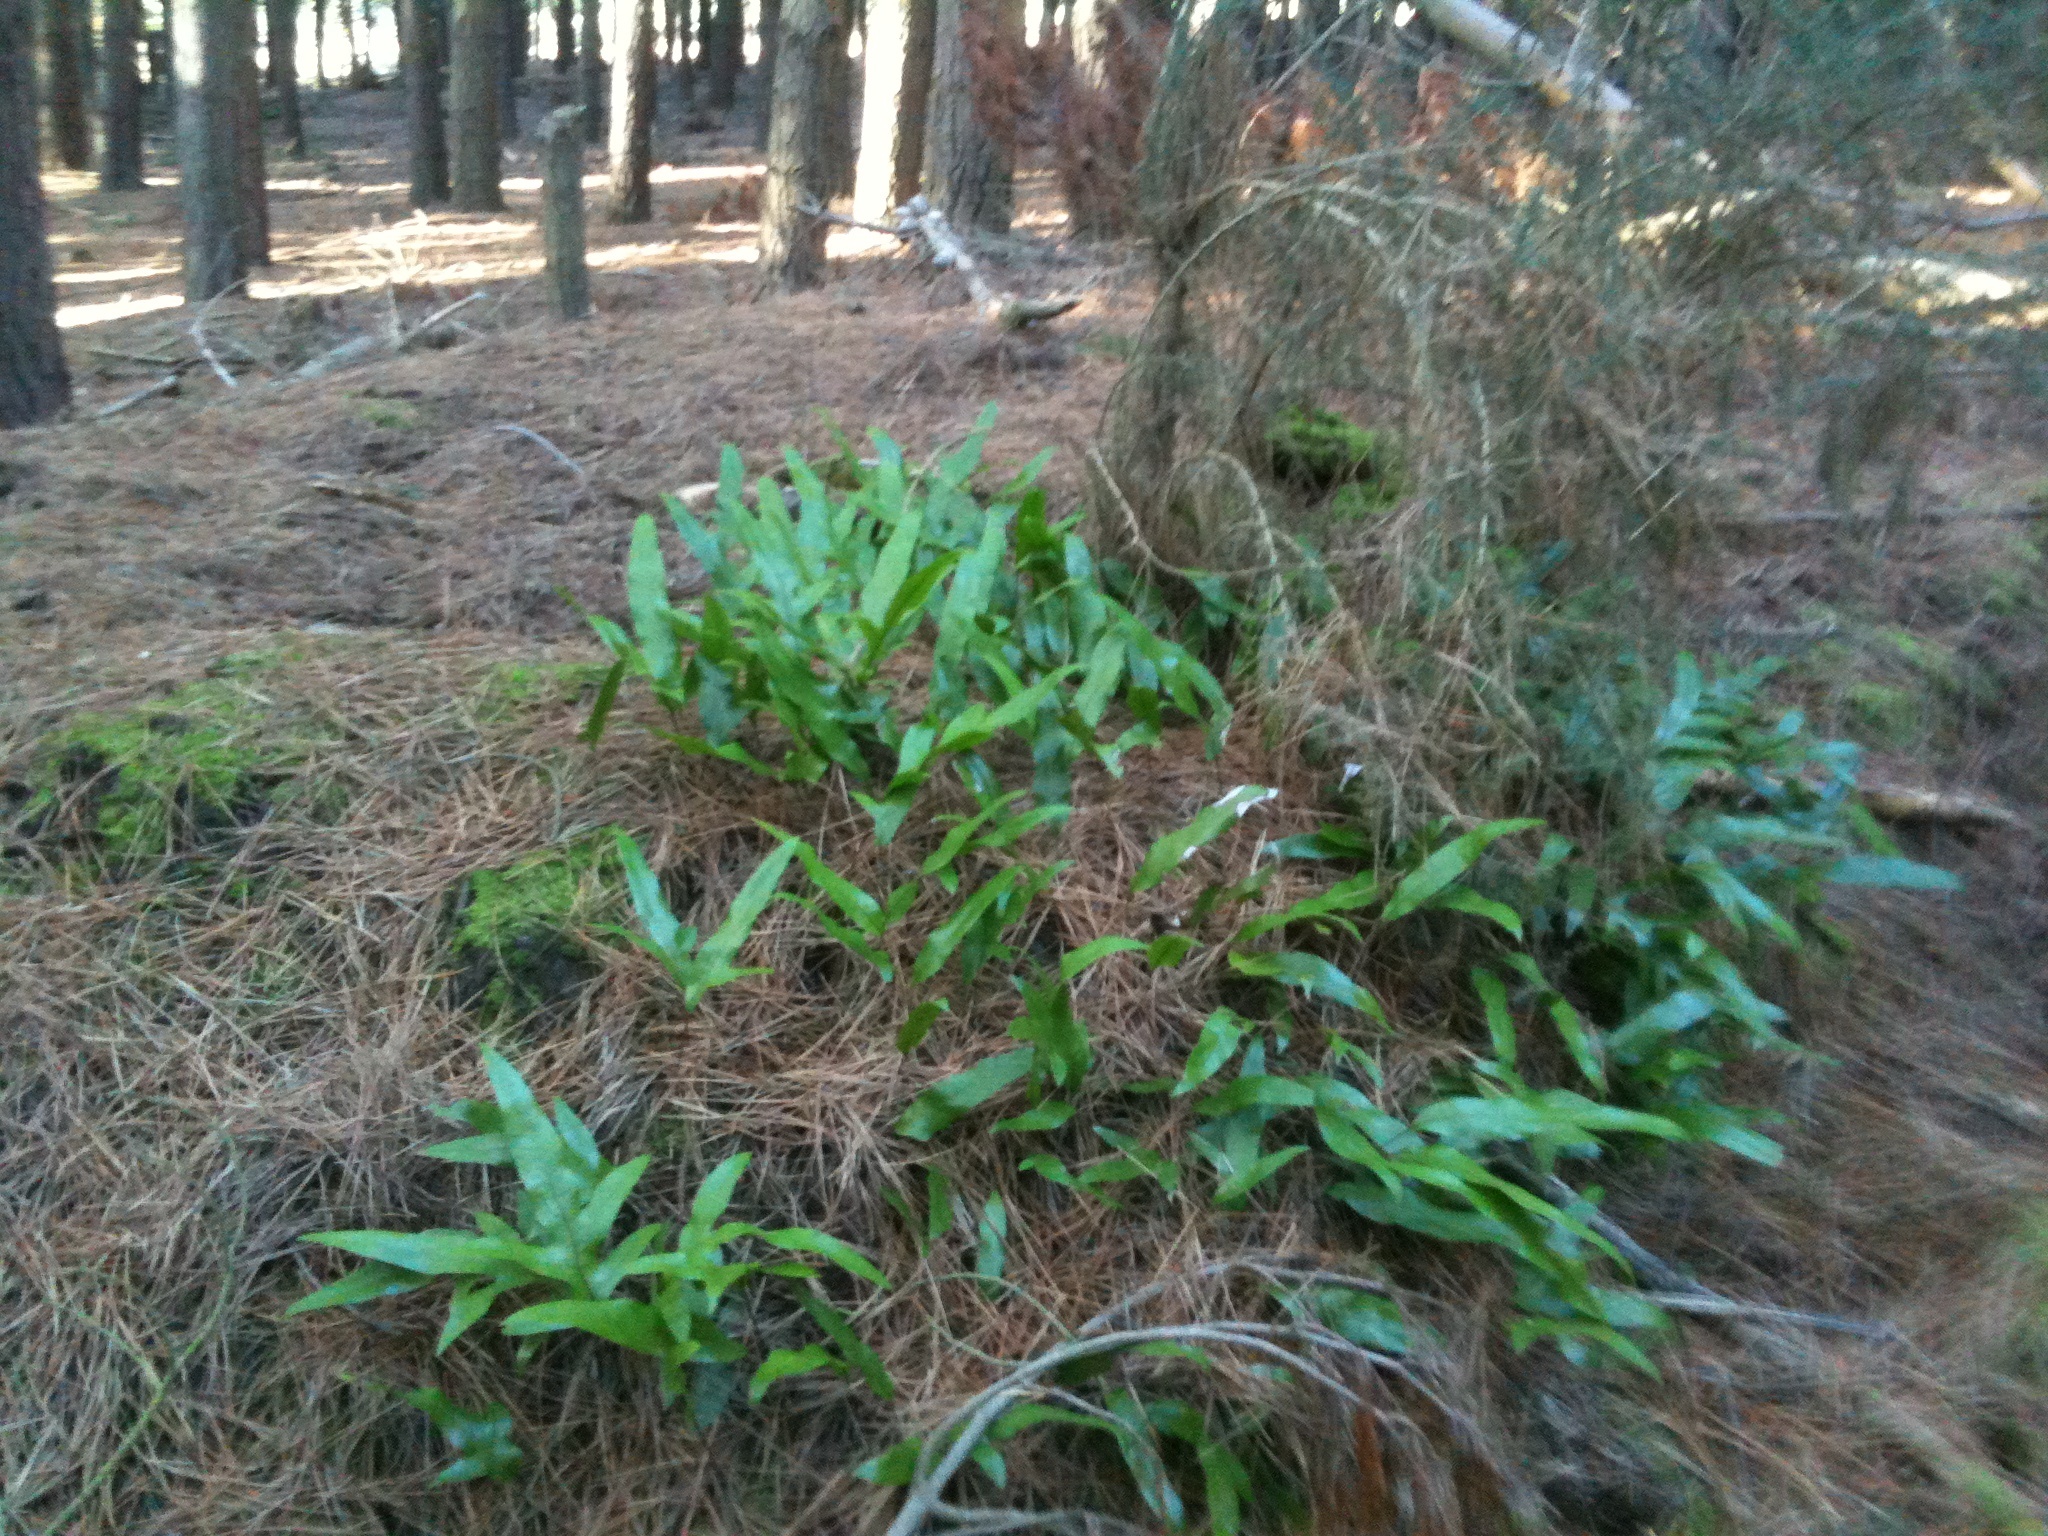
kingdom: Plantae
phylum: Tracheophyta
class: Polypodiopsida
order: Polypodiales
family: Polypodiaceae
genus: Lecanopteris
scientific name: Lecanopteris pustulata
